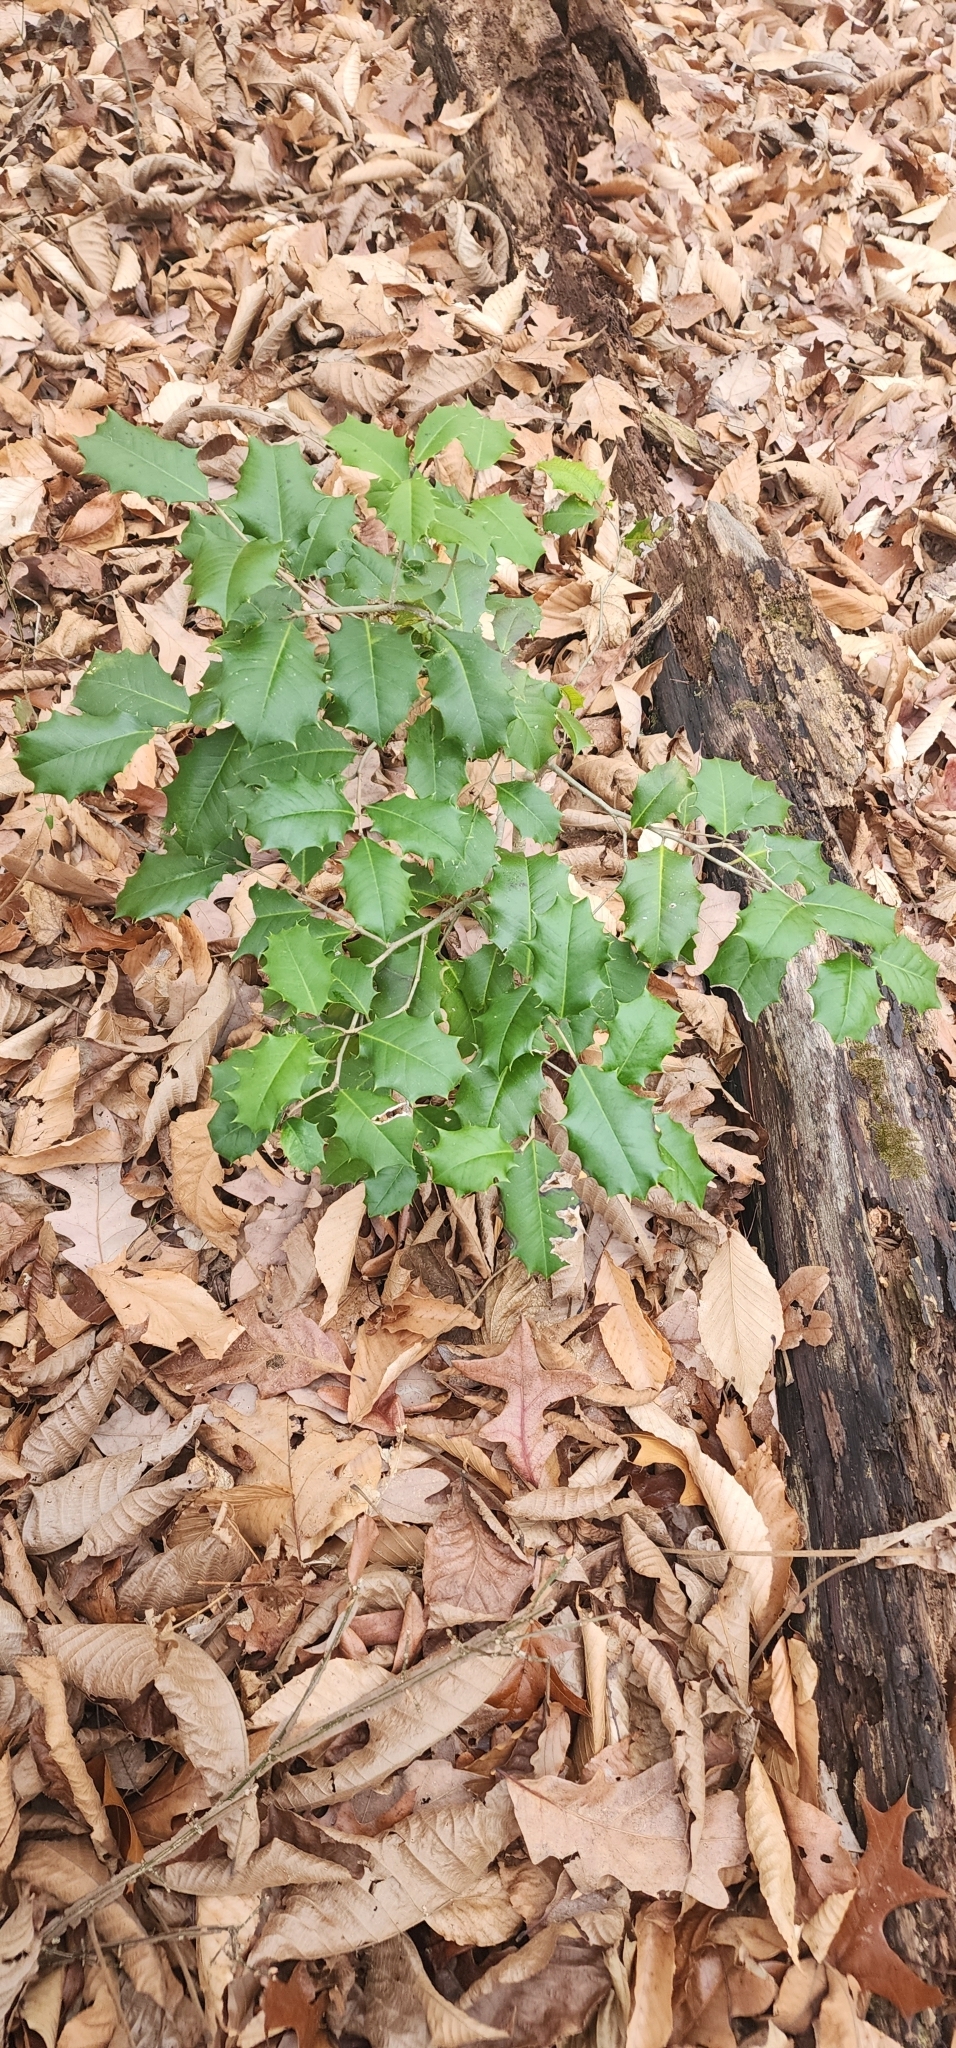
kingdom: Plantae
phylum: Tracheophyta
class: Magnoliopsida
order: Aquifoliales
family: Aquifoliaceae
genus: Ilex
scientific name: Ilex opaca
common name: American holly
